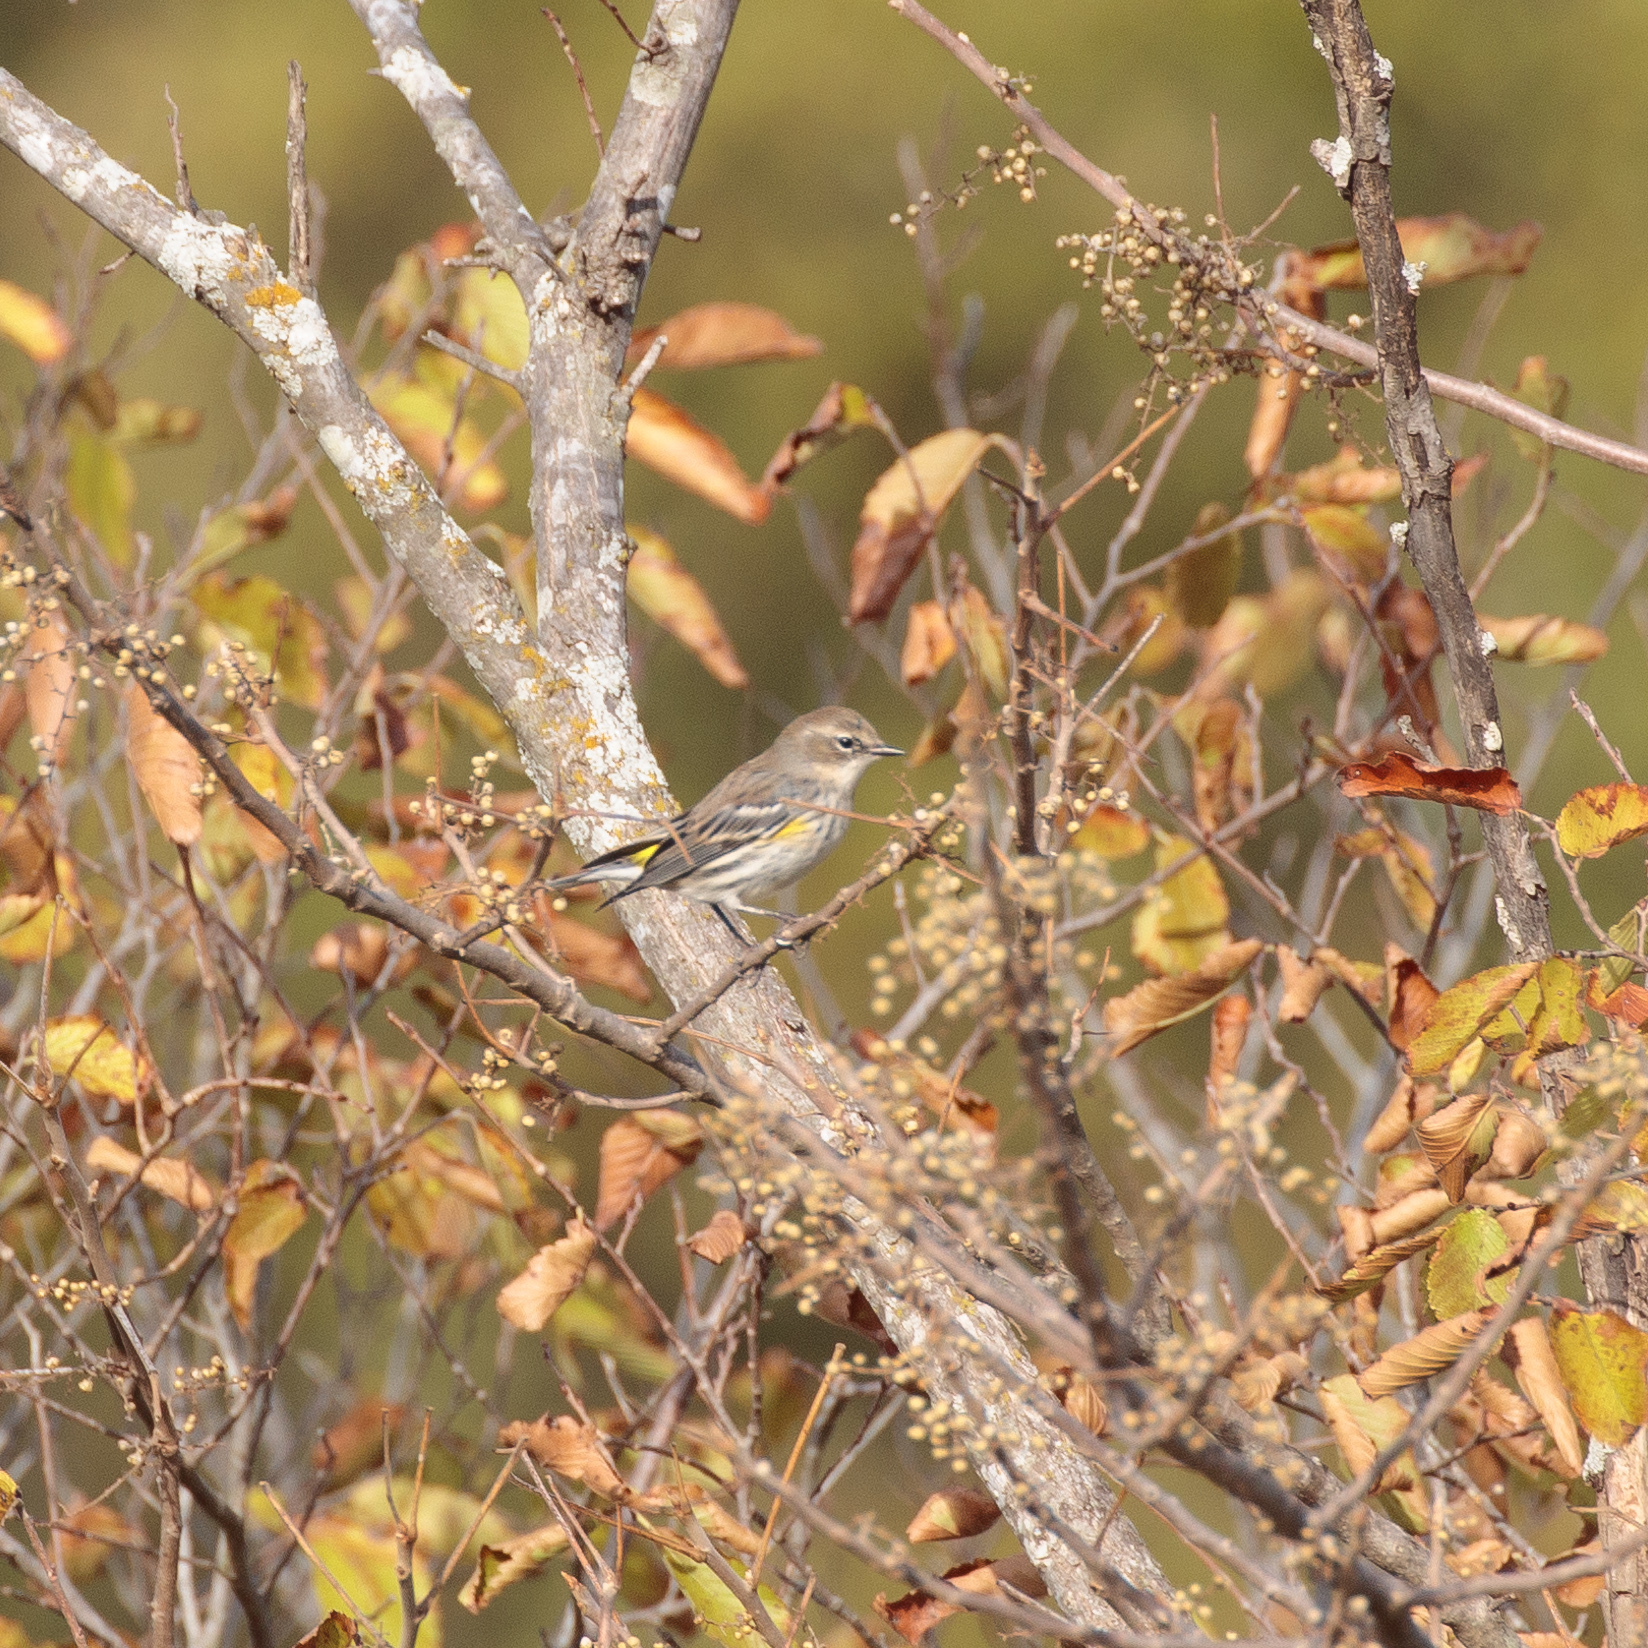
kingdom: Animalia
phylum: Chordata
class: Aves
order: Passeriformes
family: Parulidae
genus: Setophaga
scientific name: Setophaga coronata
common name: Myrtle warbler
